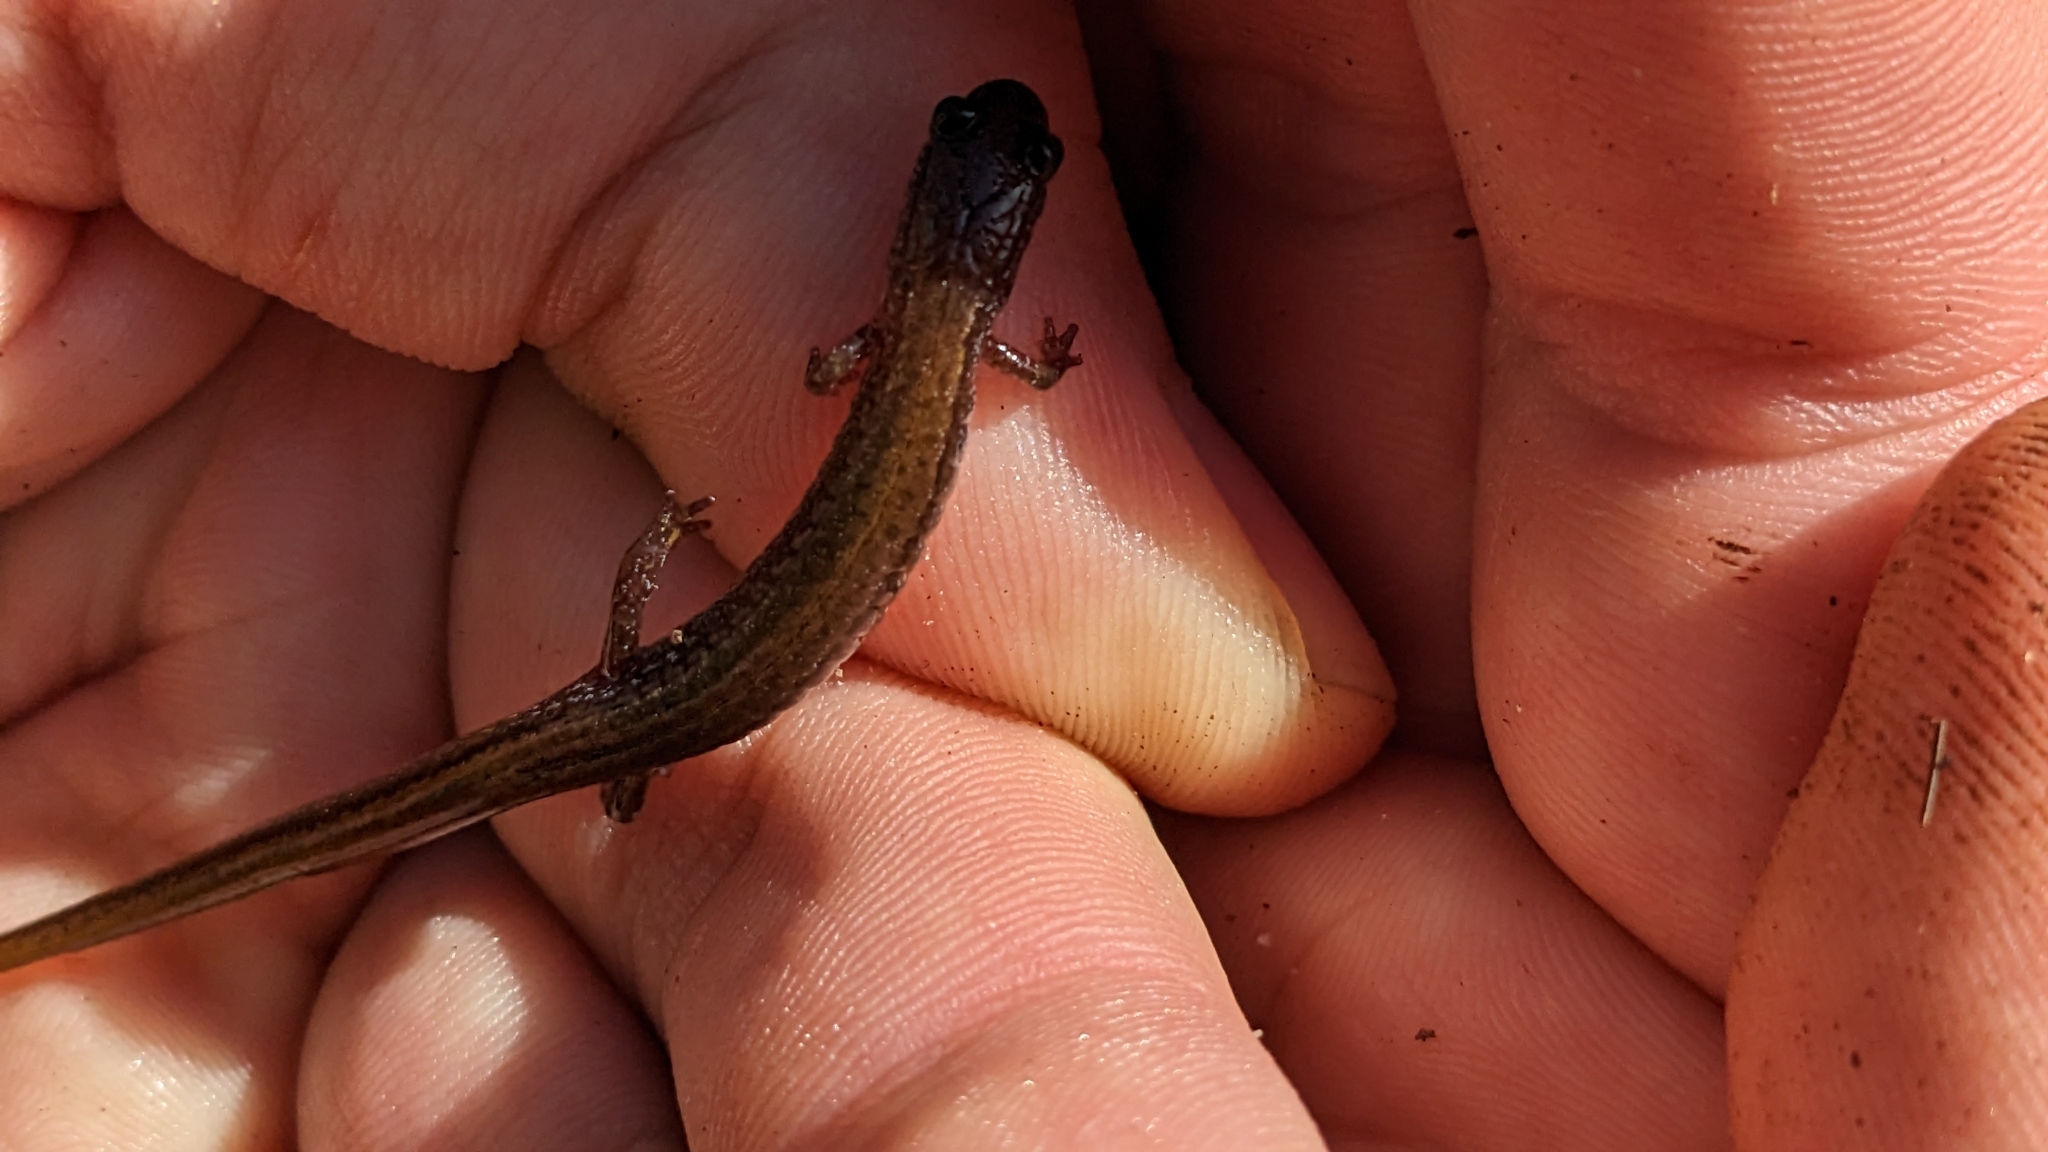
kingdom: Animalia
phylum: Chordata
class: Amphibia
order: Caudata
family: Plethodontidae
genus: Eurycea
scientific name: Eurycea paludicola
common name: Western dwarf salamander
